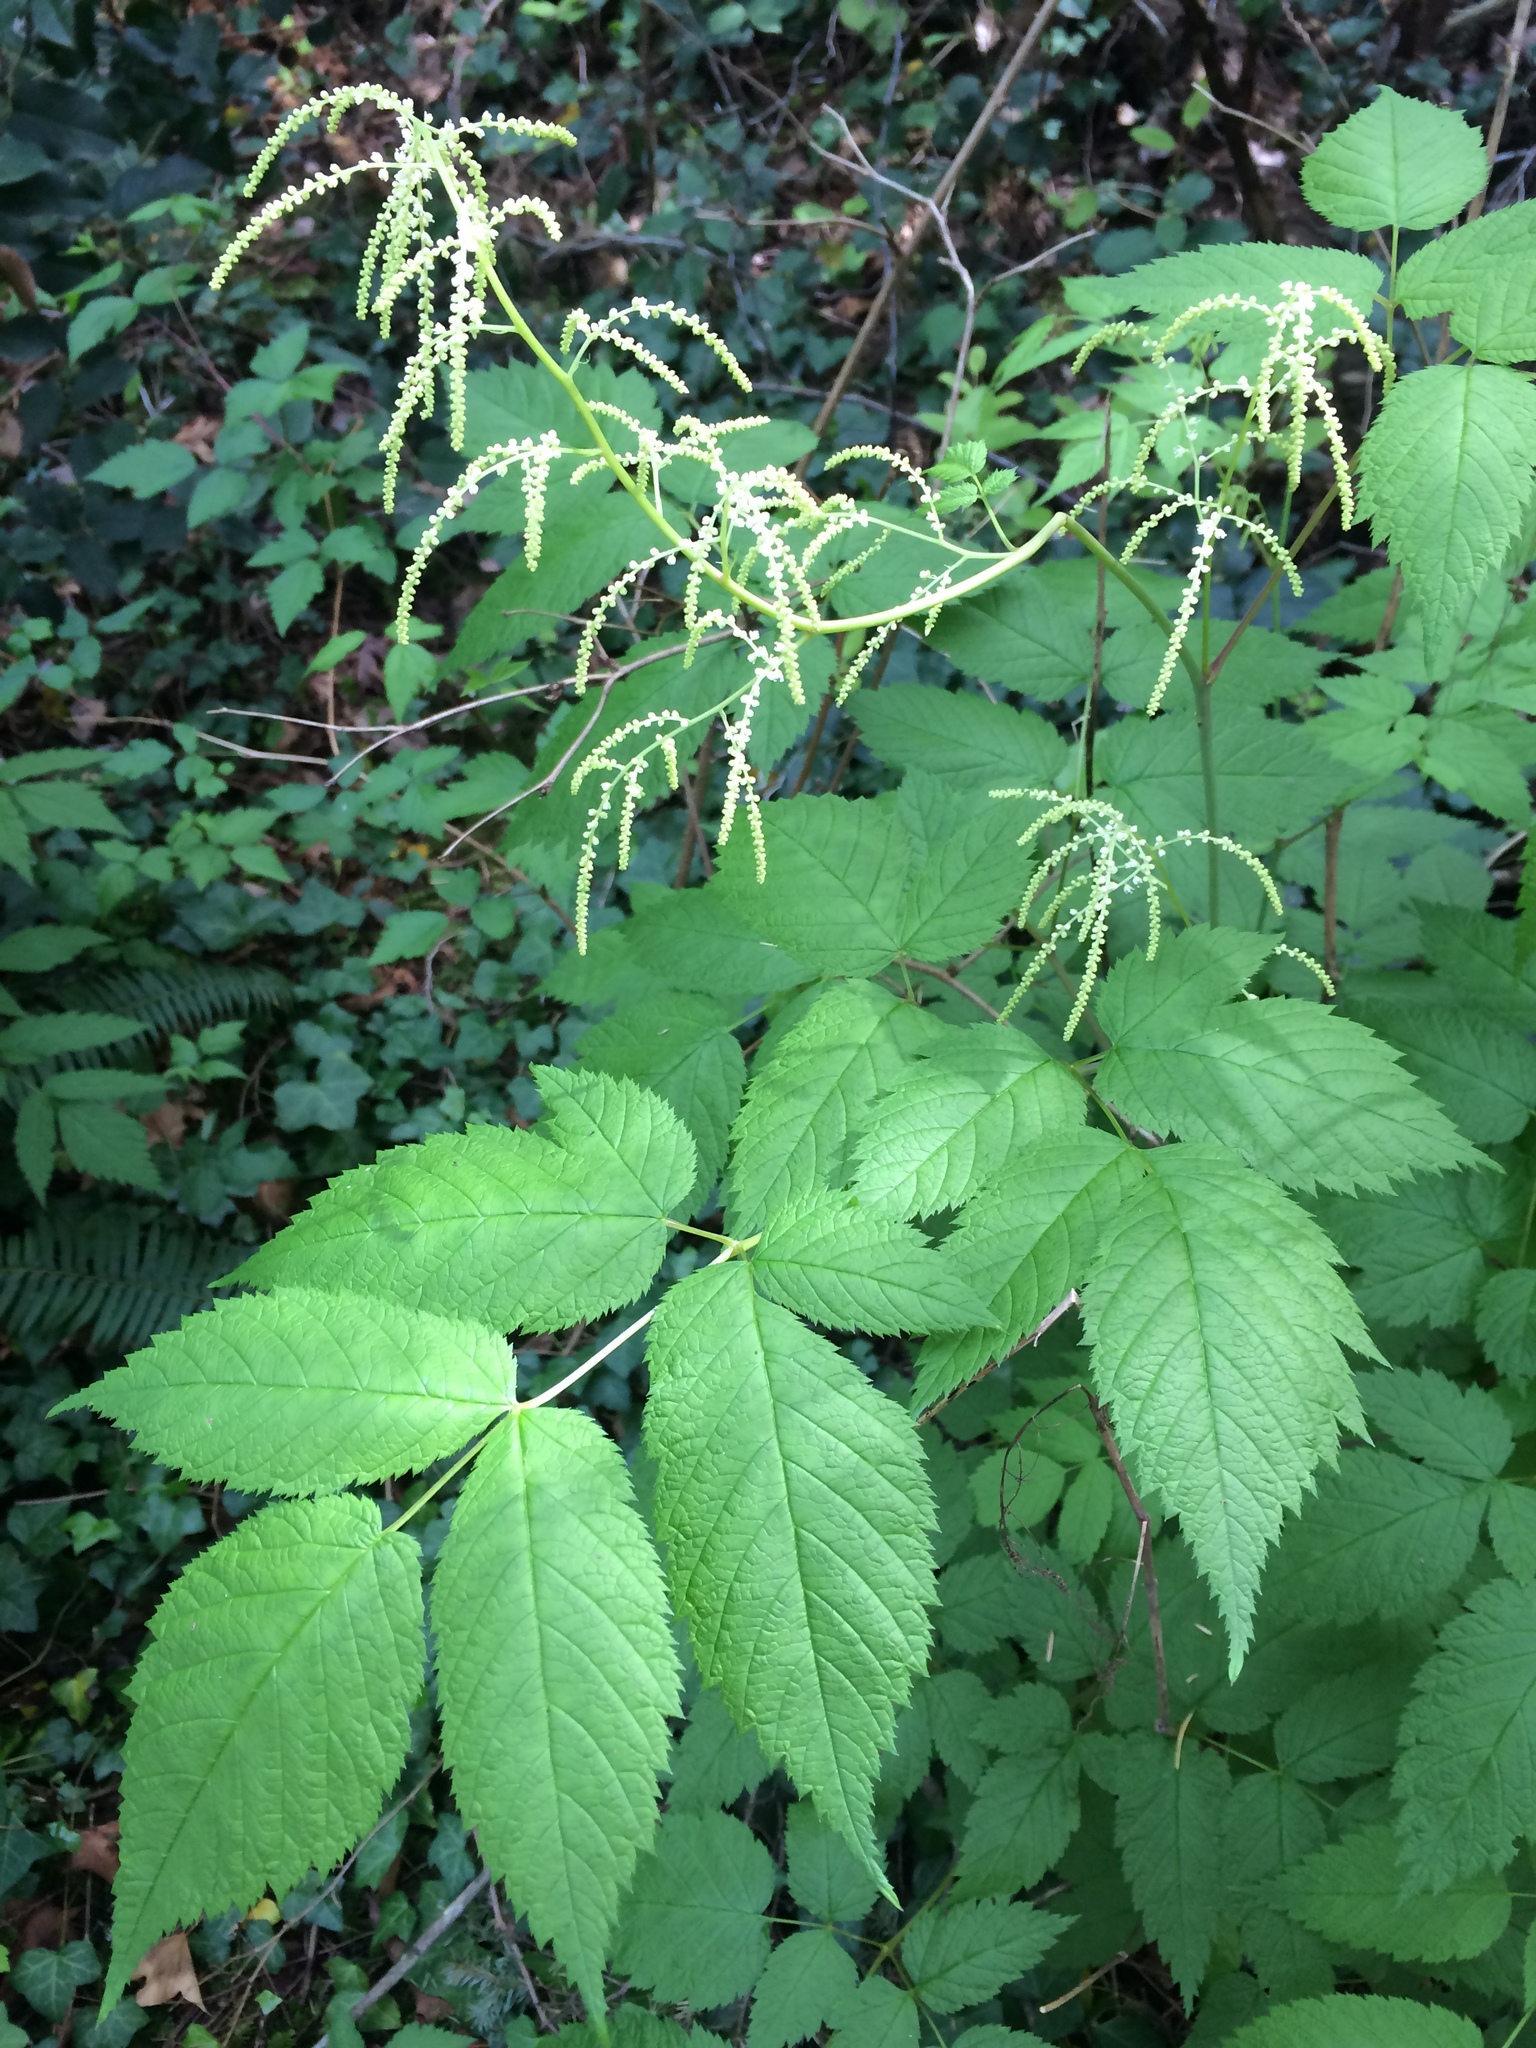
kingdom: Plantae
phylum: Tracheophyta
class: Magnoliopsida
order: Rosales
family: Rosaceae
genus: Aruncus
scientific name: Aruncus dioicus
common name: Buck's-beard
